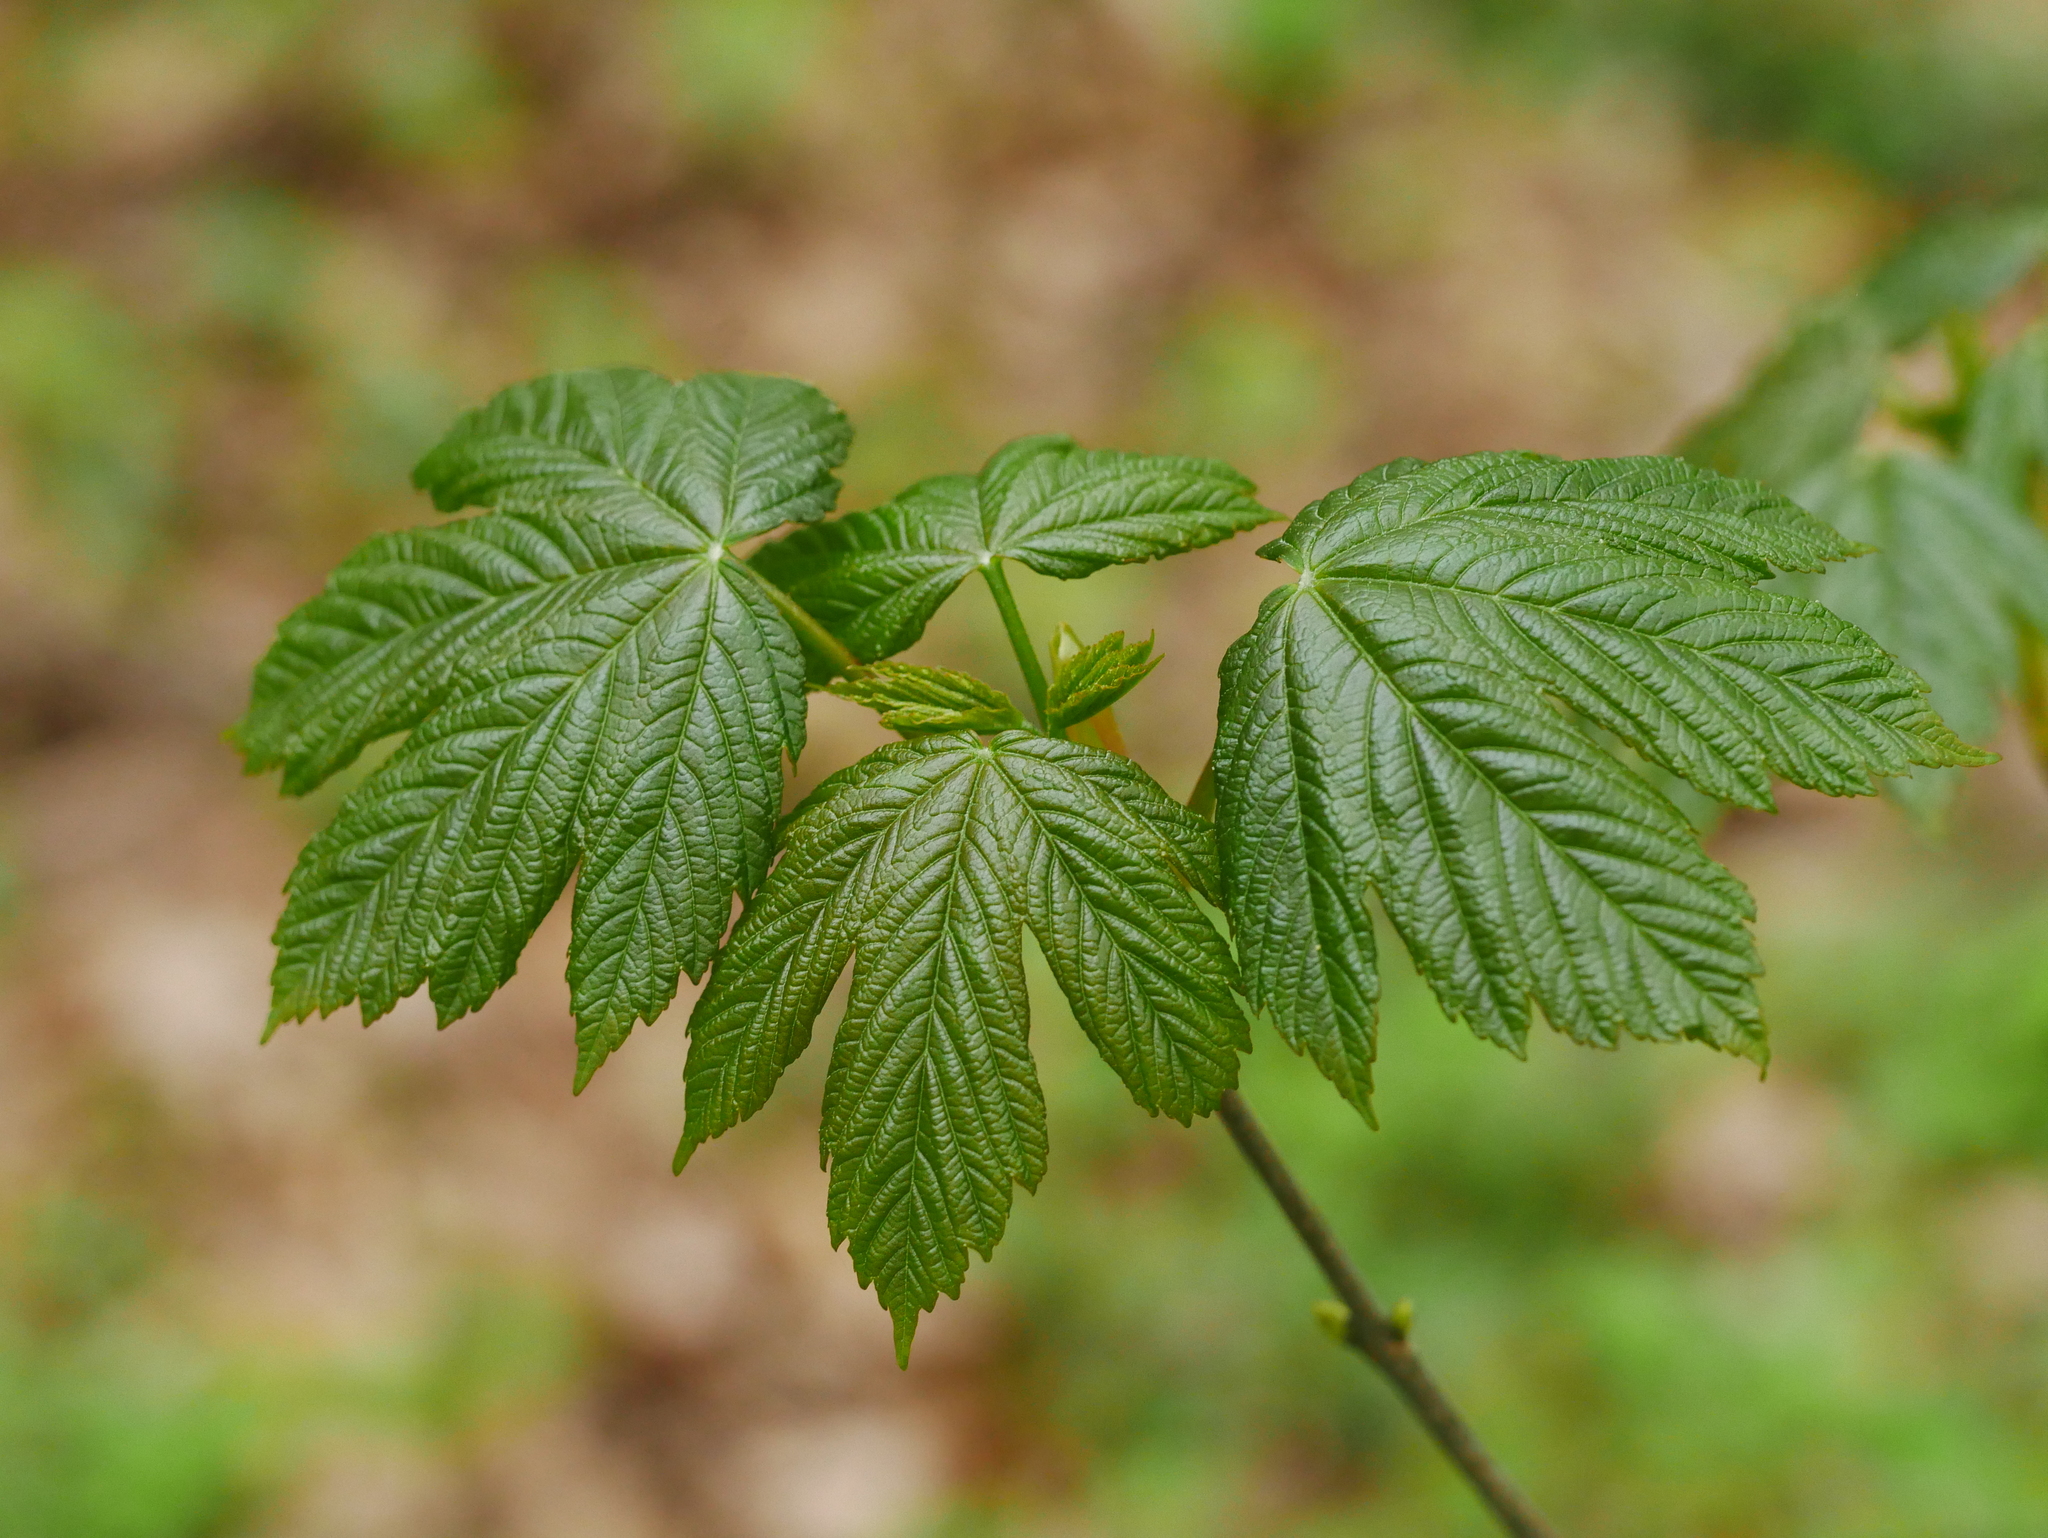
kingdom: Plantae
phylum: Tracheophyta
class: Magnoliopsida
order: Sapindales
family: Sapindaceae
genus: Acer
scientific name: Acer pseudoplatanus
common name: Sycamore
